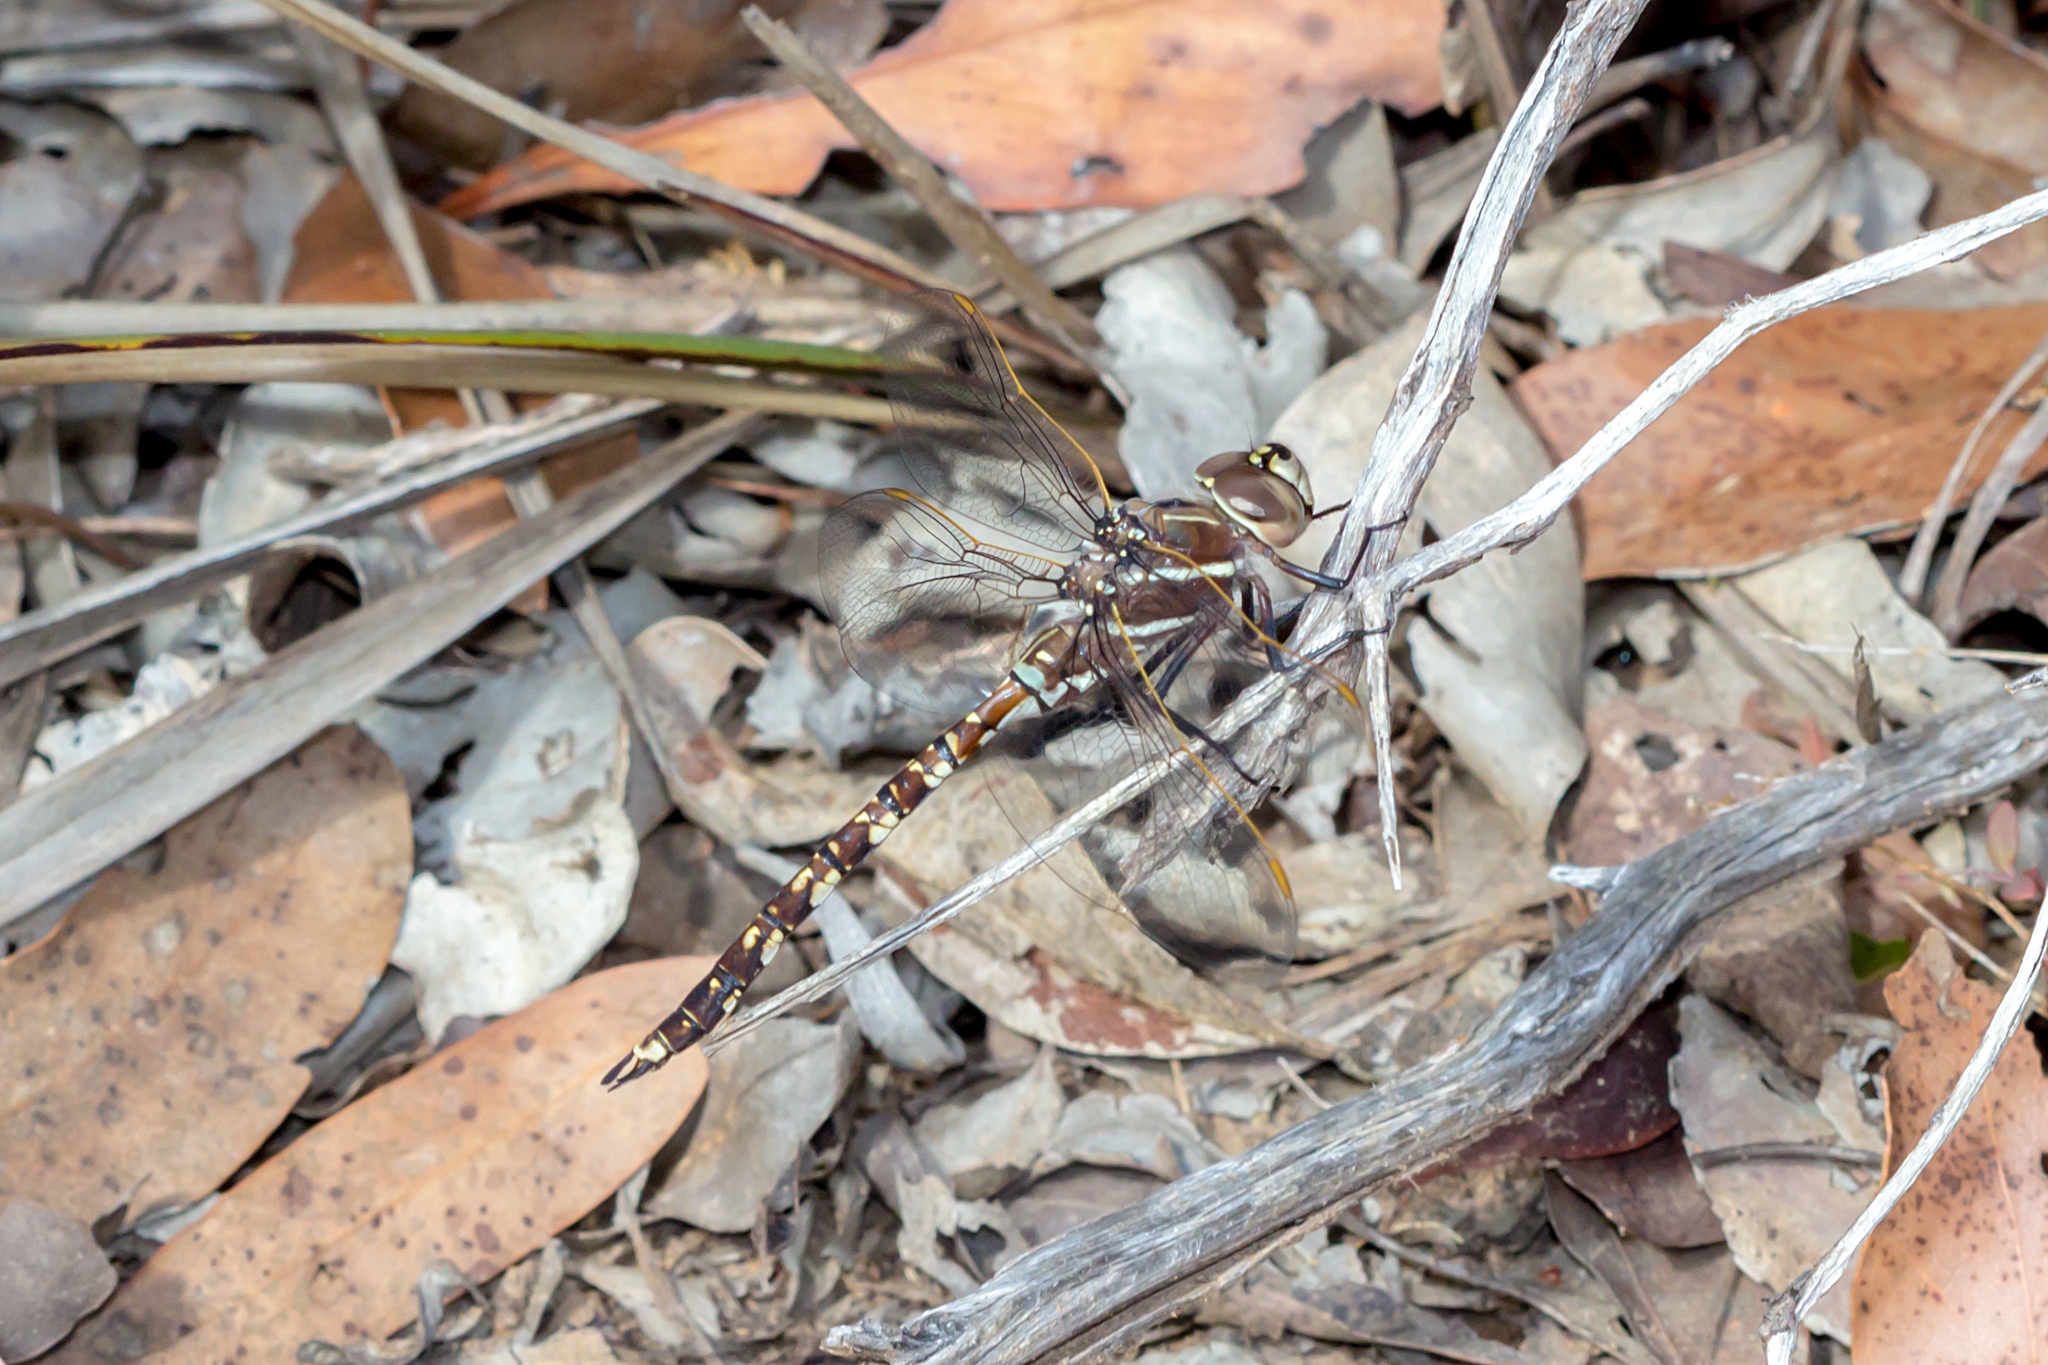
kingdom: Animalia
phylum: Arthropoda
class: Insecta
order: Odonata
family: Aeshnidae
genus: Aeshna
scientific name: Aeshna brevistyla
